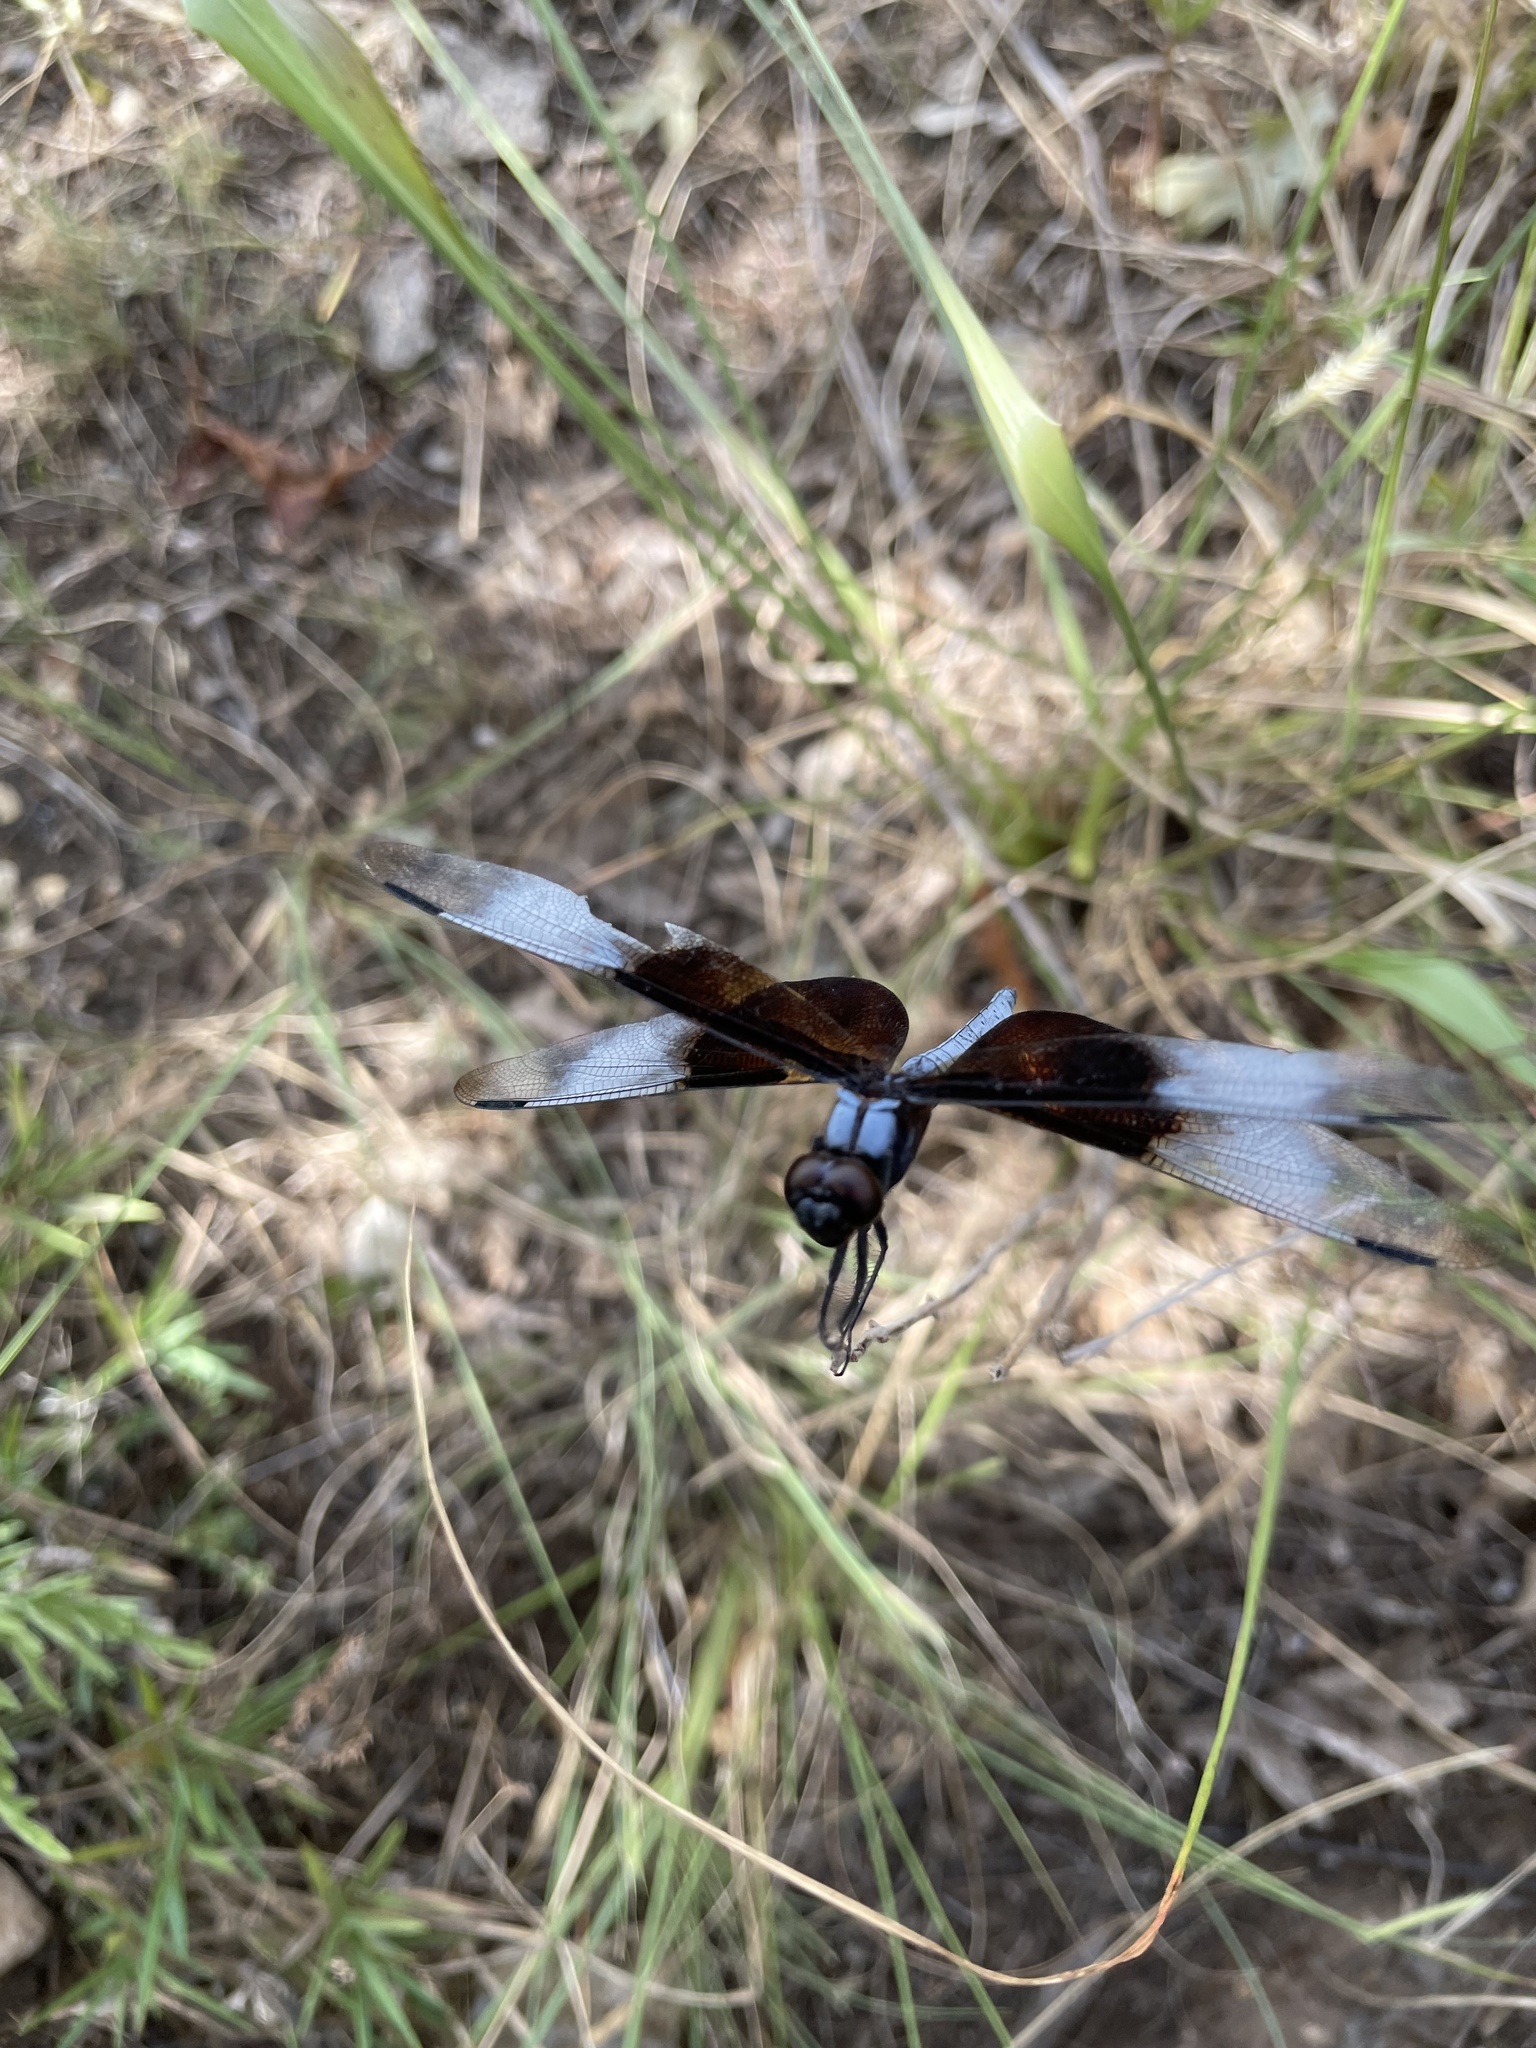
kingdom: Animalia
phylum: Arthropoda
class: Insecta
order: Odonata
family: Libellulidae
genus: Libellula
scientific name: Libellula luctuosa
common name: Widow skimmer
